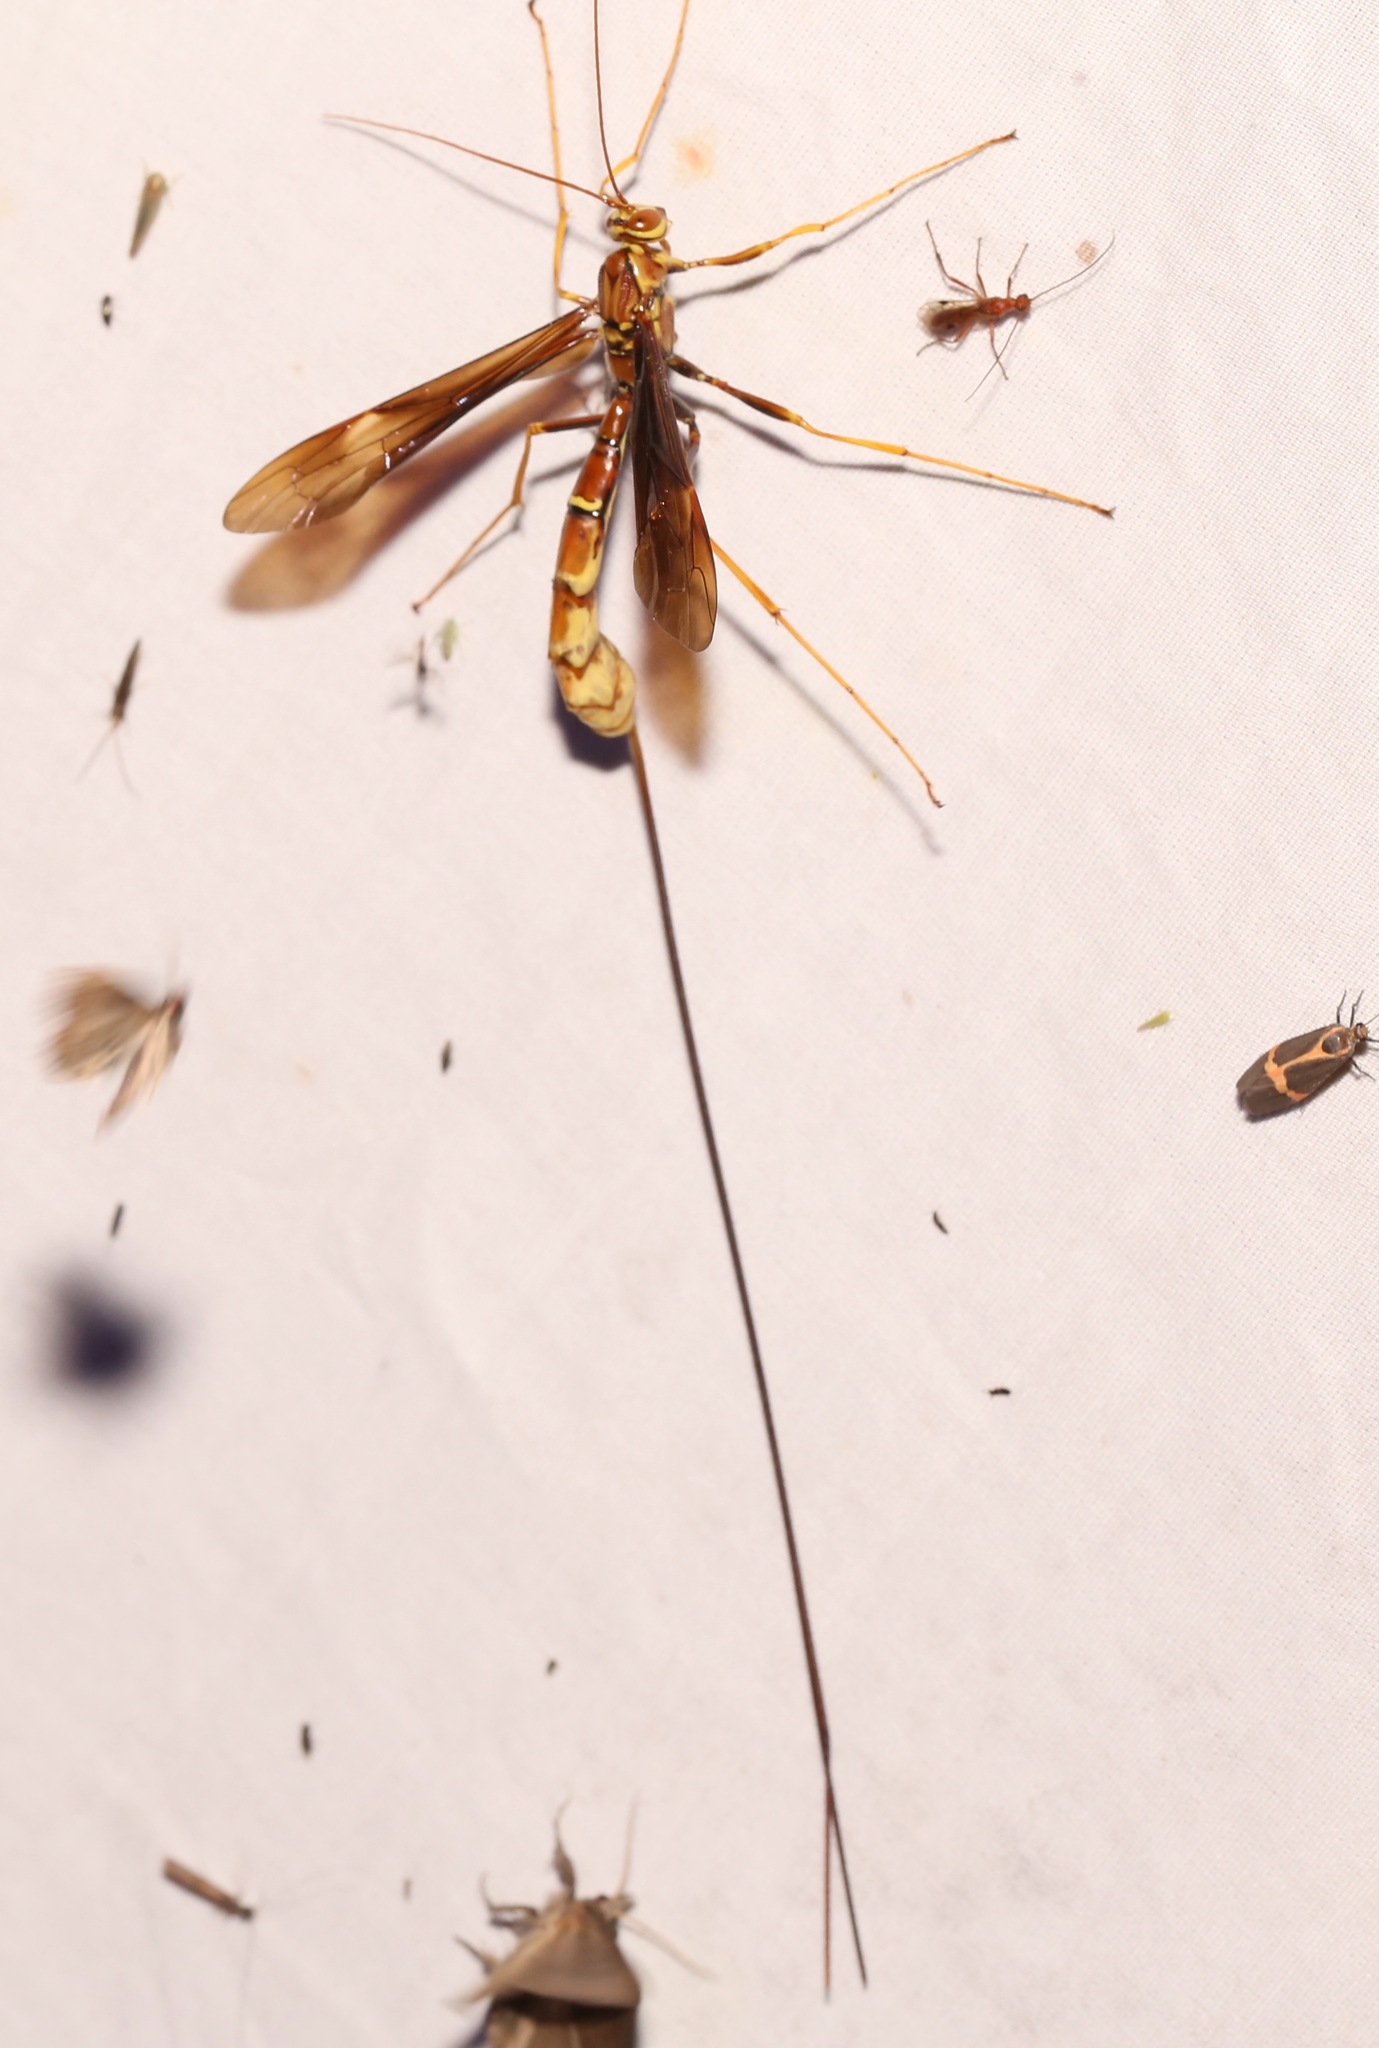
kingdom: Animalia
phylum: Arthropoda
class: Insecta
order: Hymenoptera
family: Ichneumonidae
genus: Megarhyssa
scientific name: Megarhyssa macrura
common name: Long-tailed giant ichneumonid wasp
